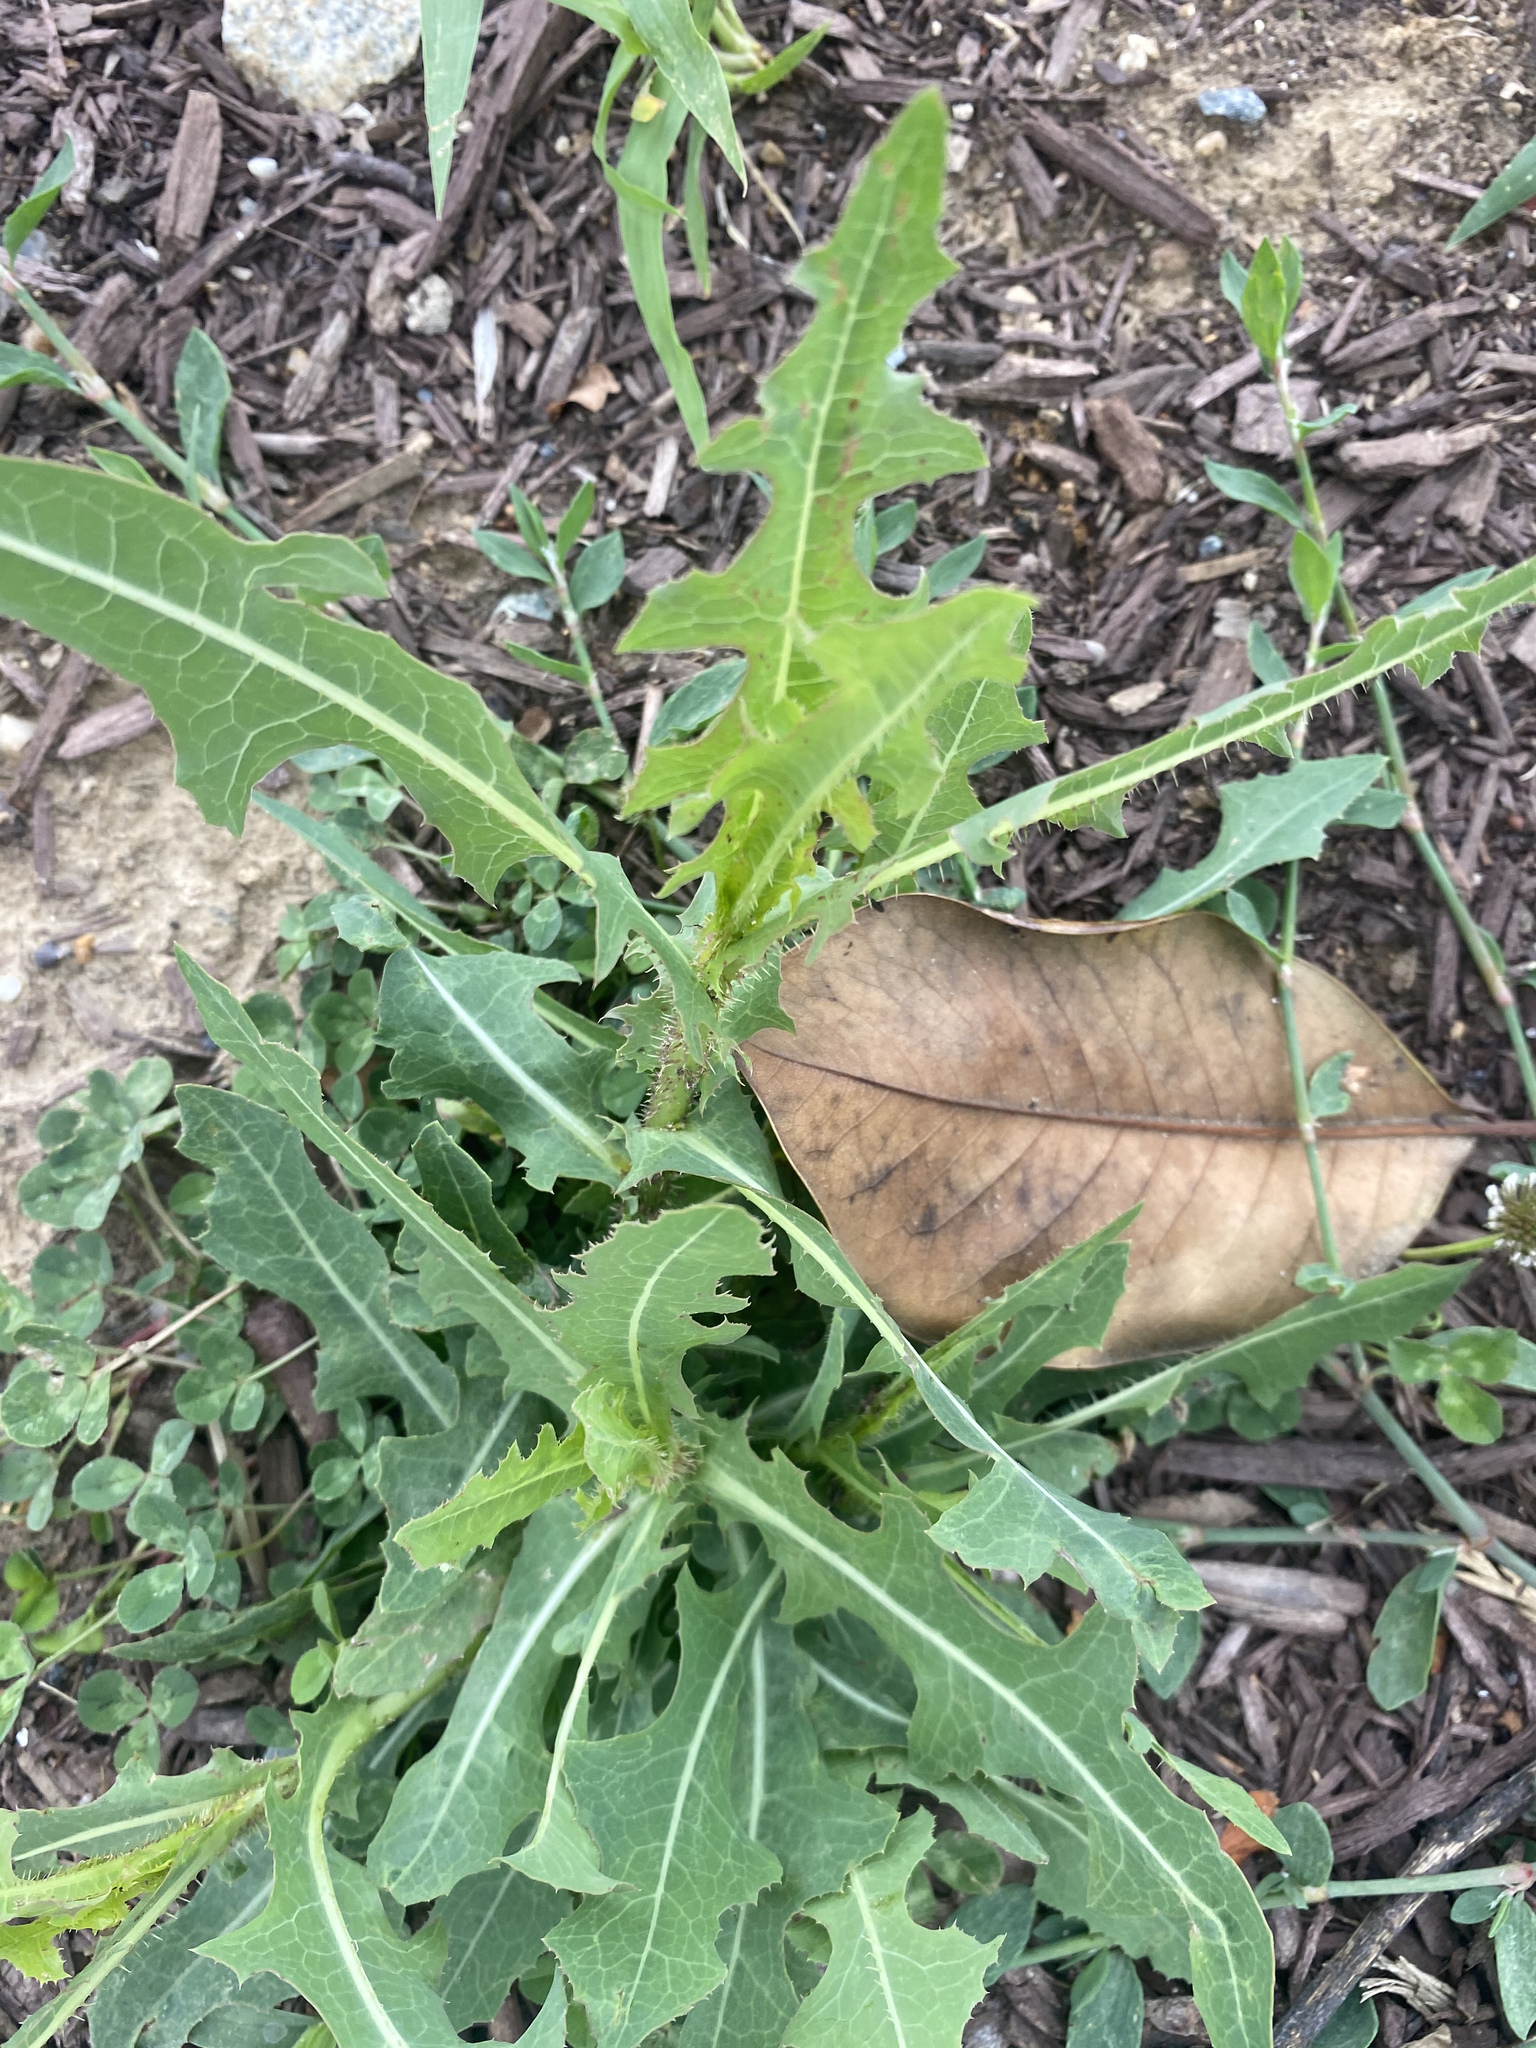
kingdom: Plantae
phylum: Tracheophyta
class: Magnoliopsida
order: Asterales
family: Asteraceae
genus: Lactuca
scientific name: Lactuca serriola
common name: Prickly lettuce
